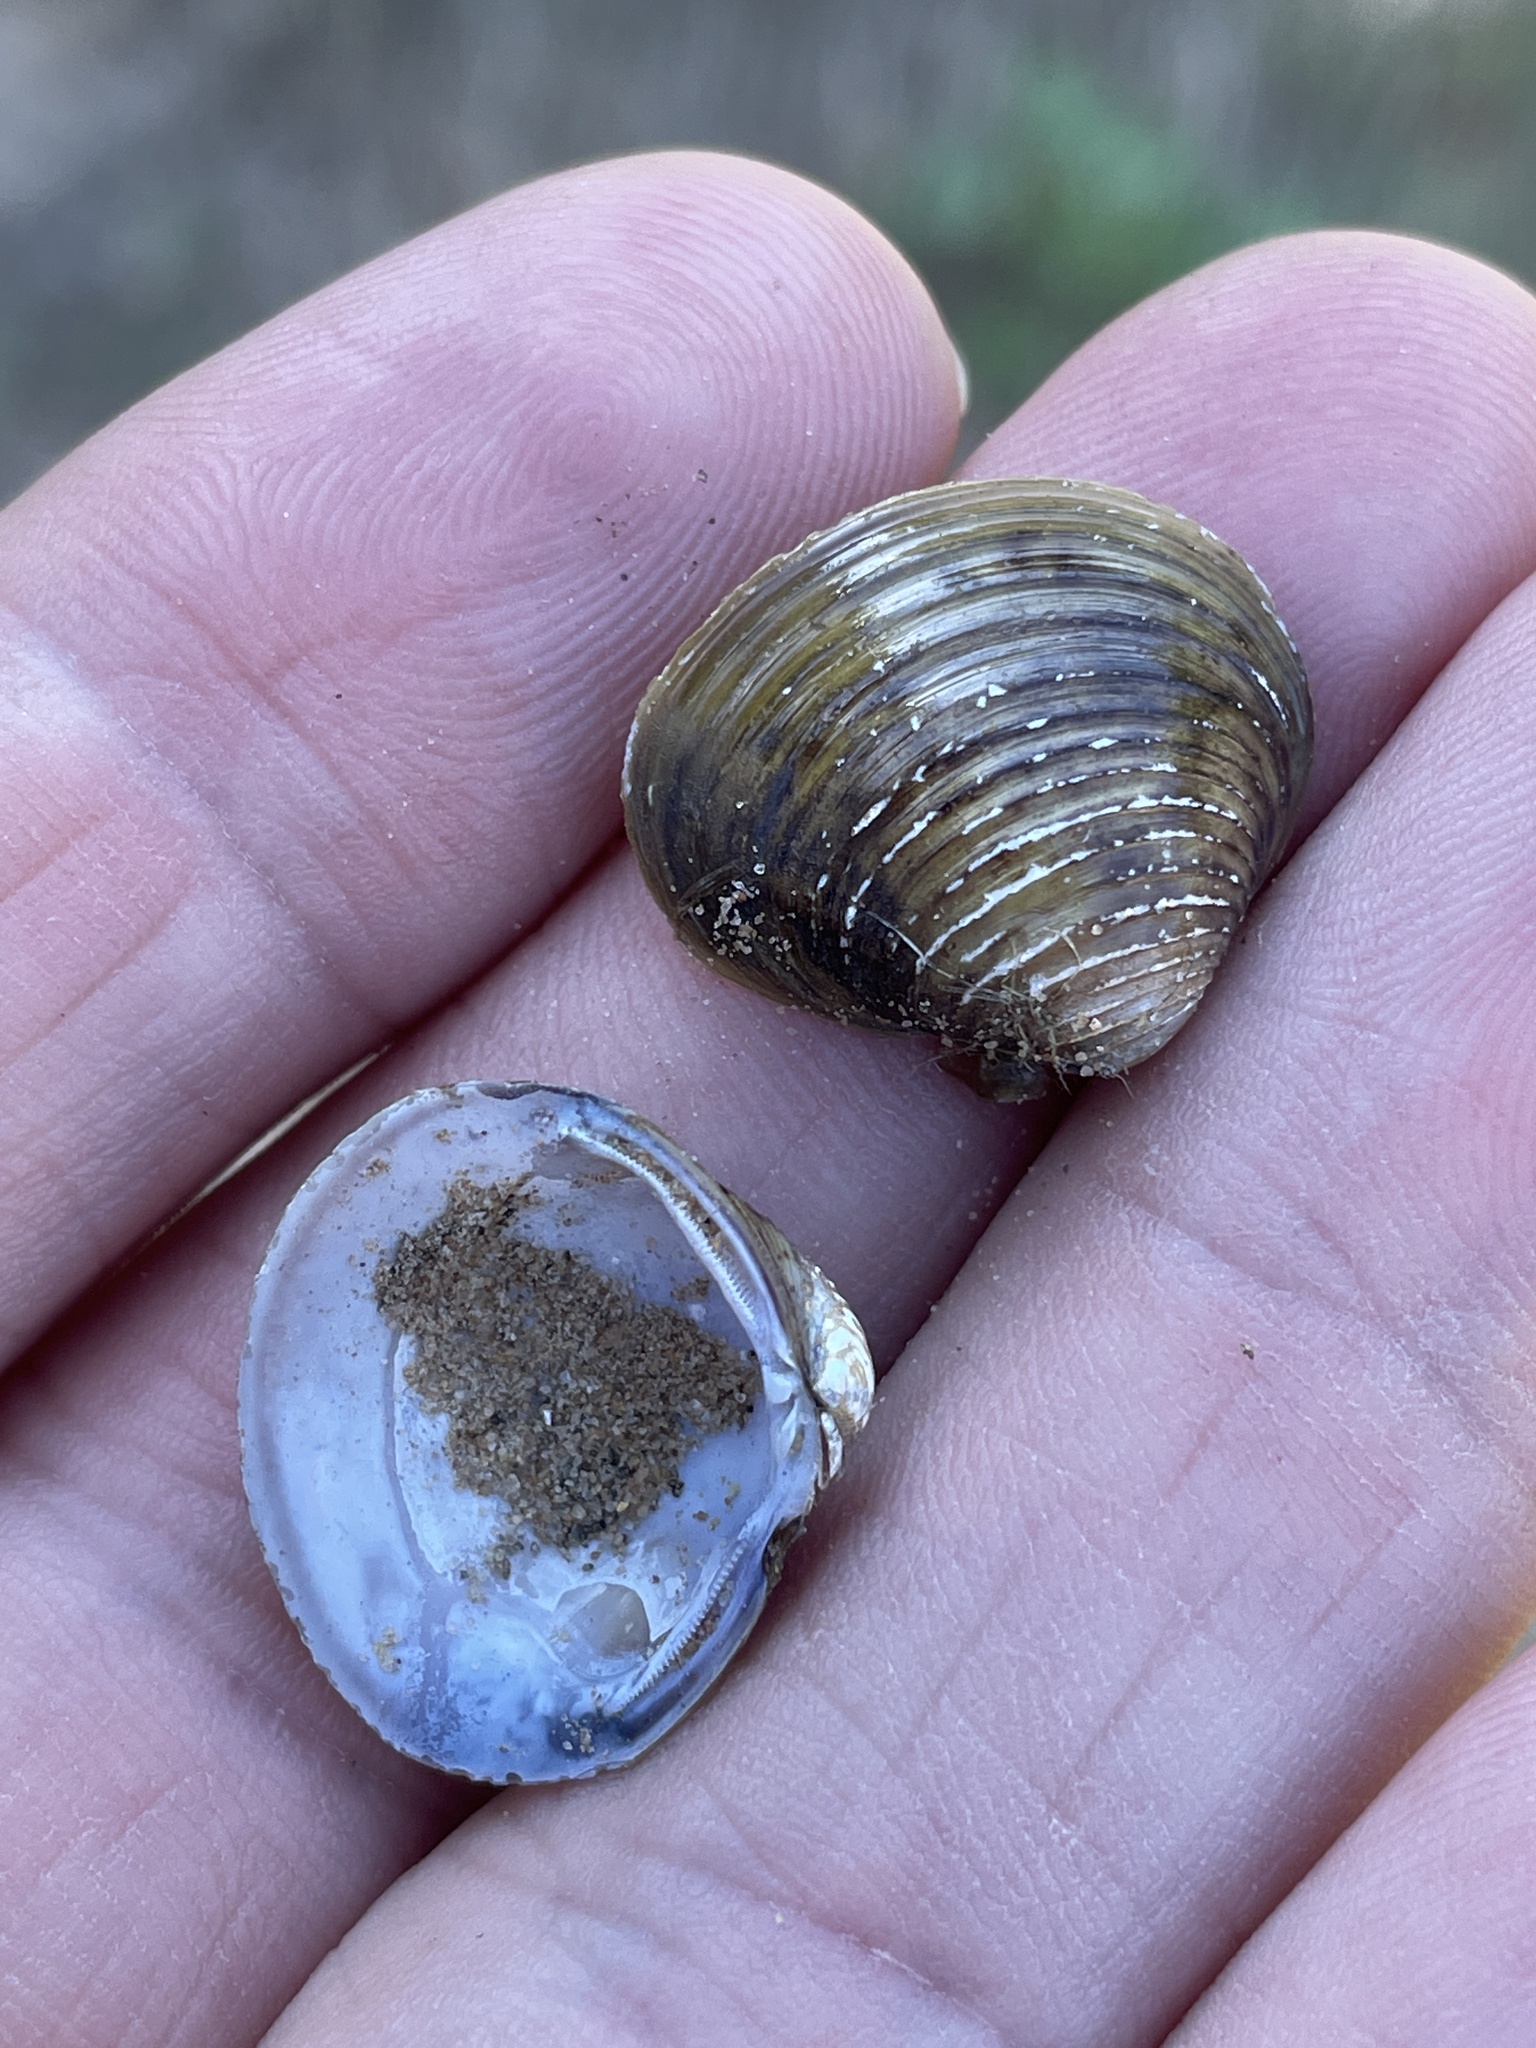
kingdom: Animalia
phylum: Mollusca
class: Bivalvia
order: Venerida
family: Cyrenidae
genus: Corbicula
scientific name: Corbicula fluminea
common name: Asian clam
